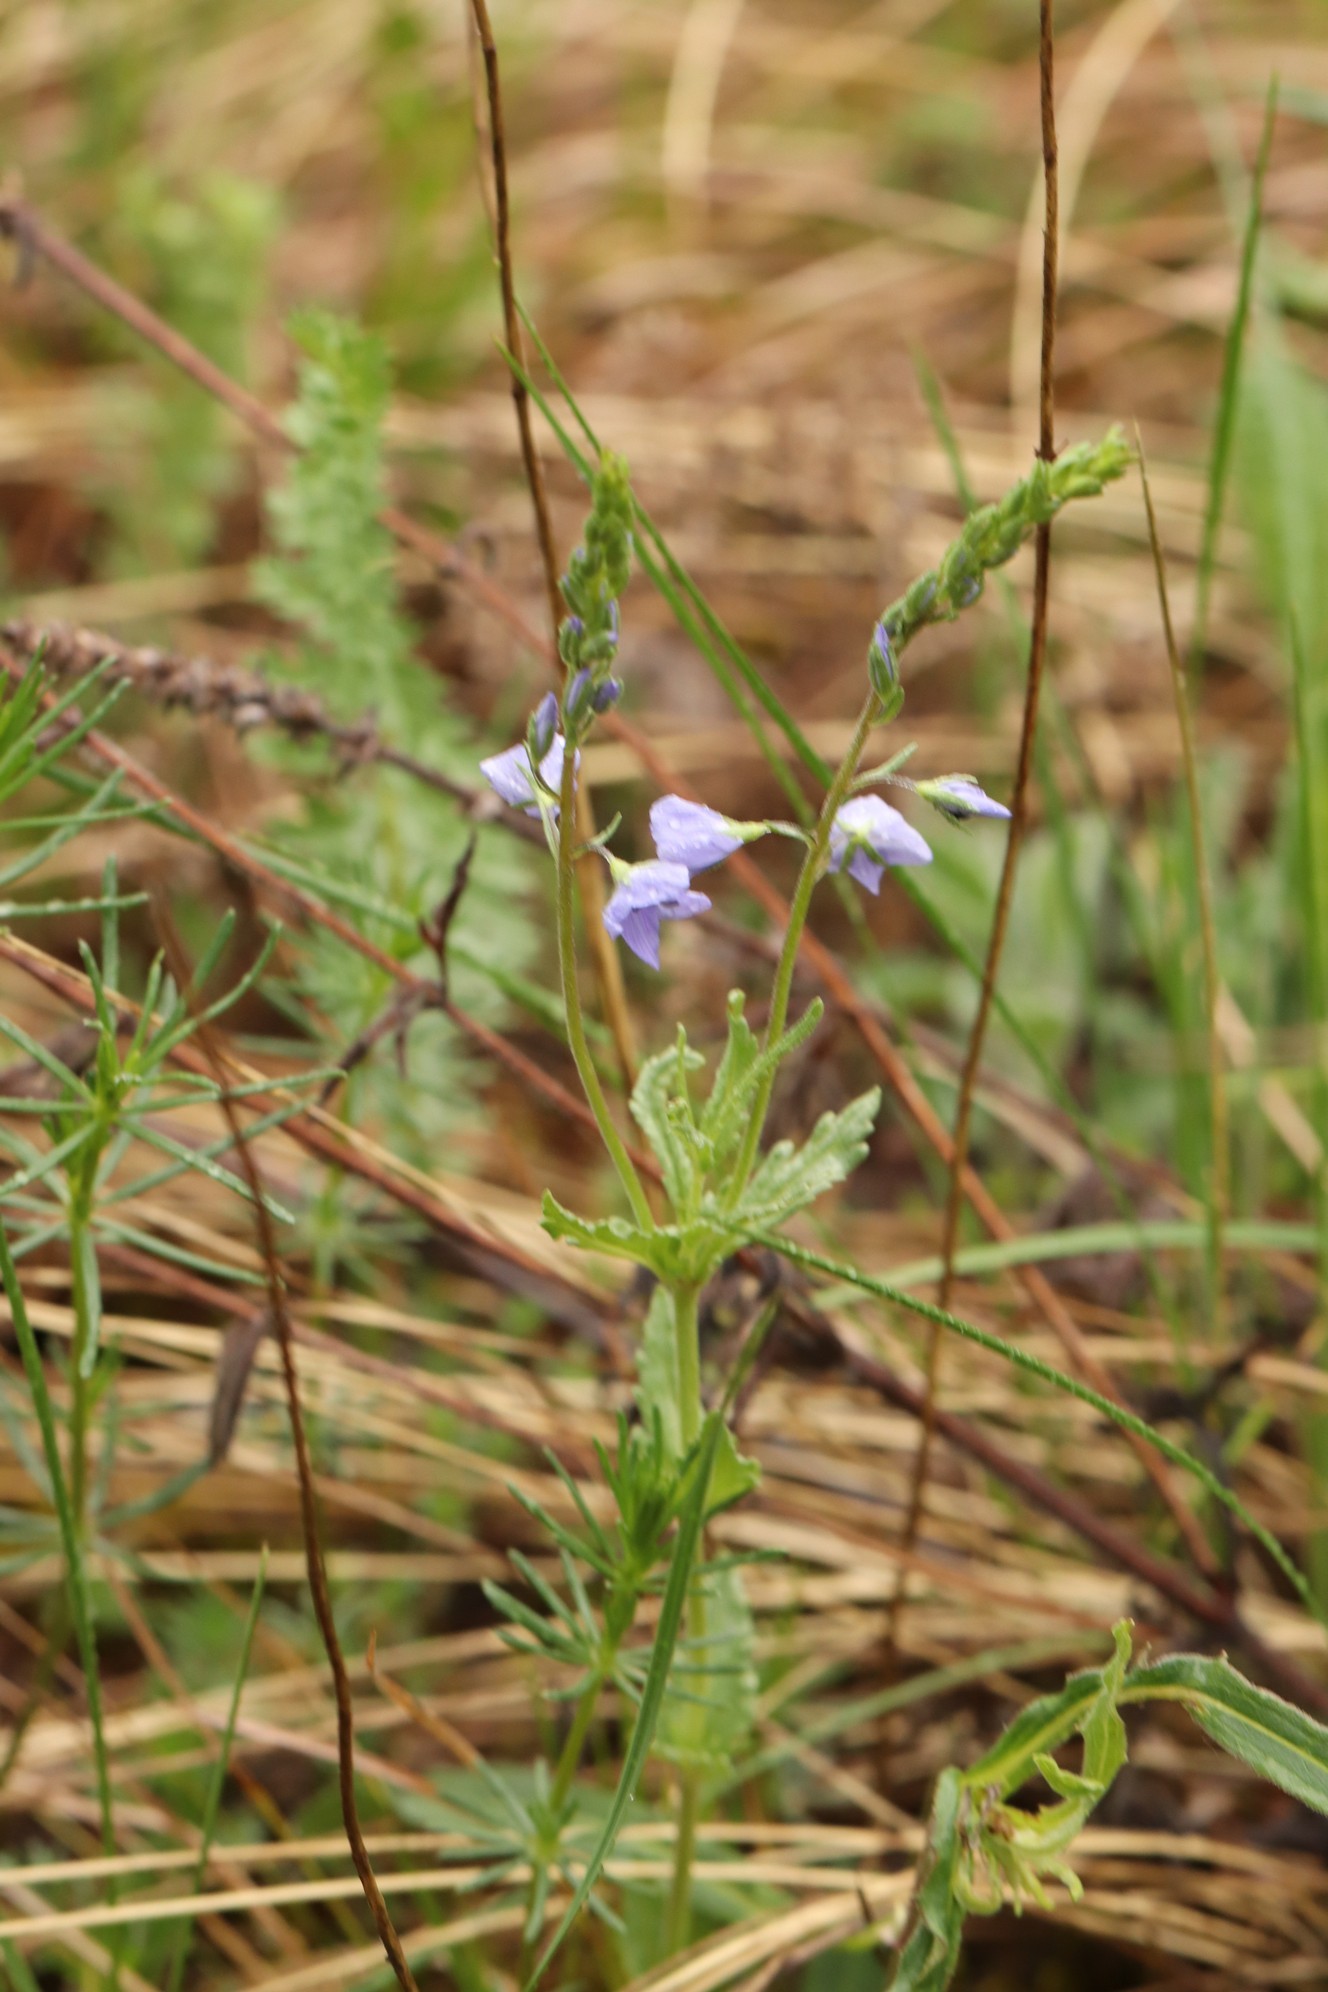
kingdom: Plantae
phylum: Tracheophyta
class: Magnoliopsida
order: Lamiales
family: Plantaginaceae
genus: Veronica
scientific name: Veronica krylovii
